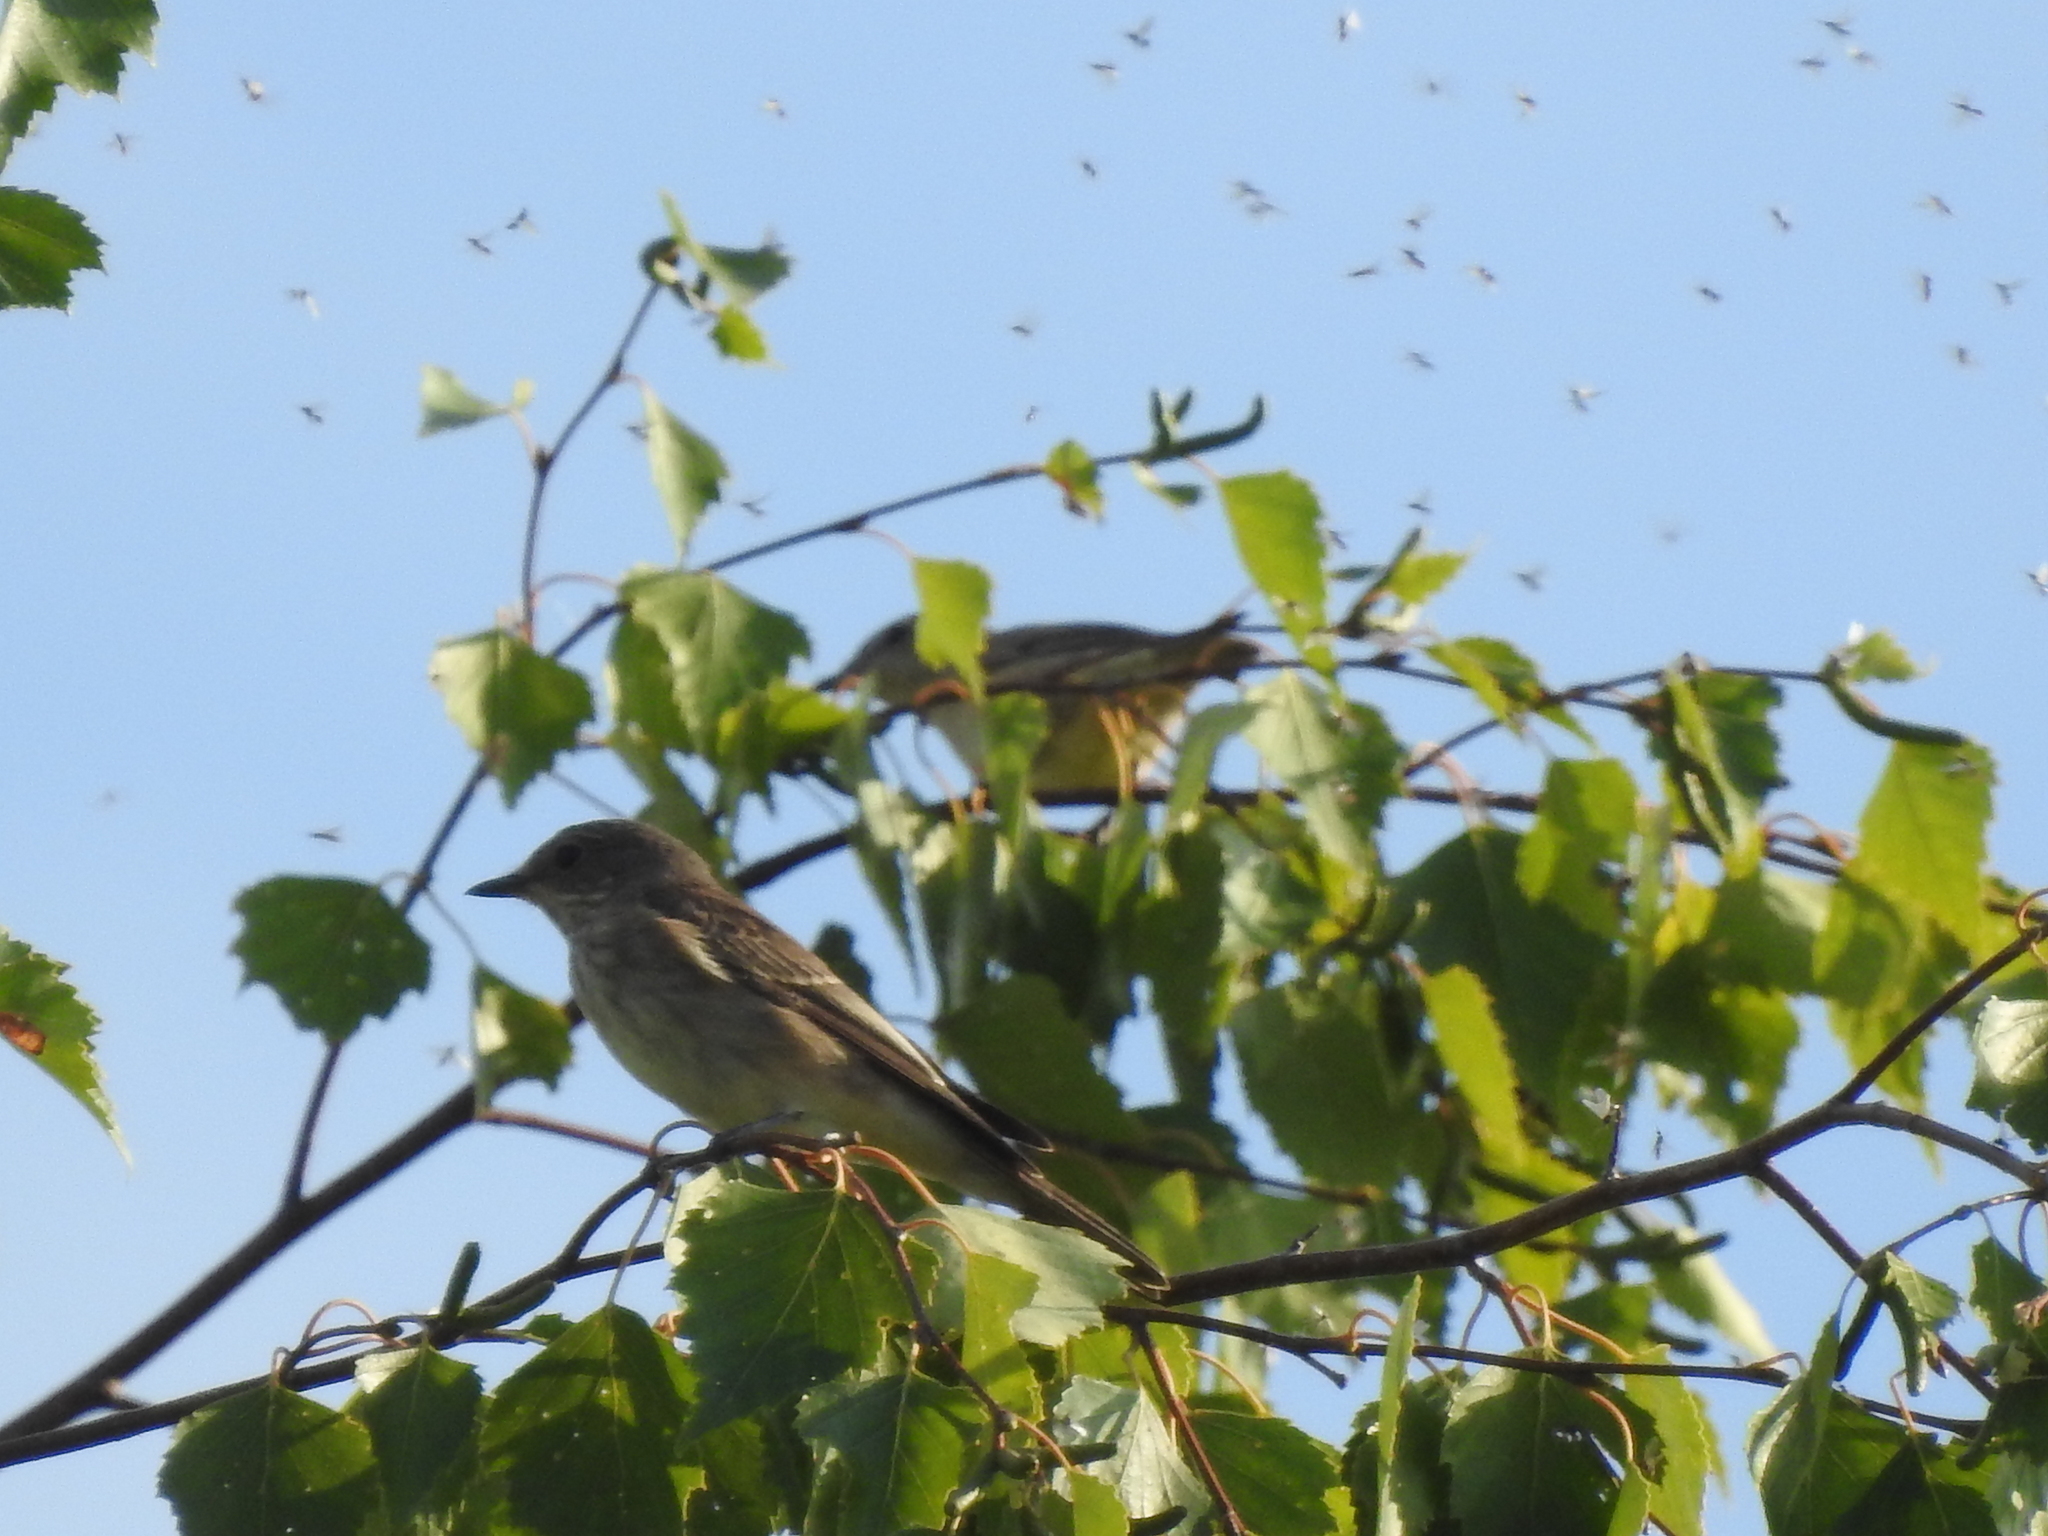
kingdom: Animalia
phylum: Chordata
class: Aves
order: Passeriformes
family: Muscicapidae
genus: Muscicapa
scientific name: Muscicapa striata
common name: Spotted flycatcher
